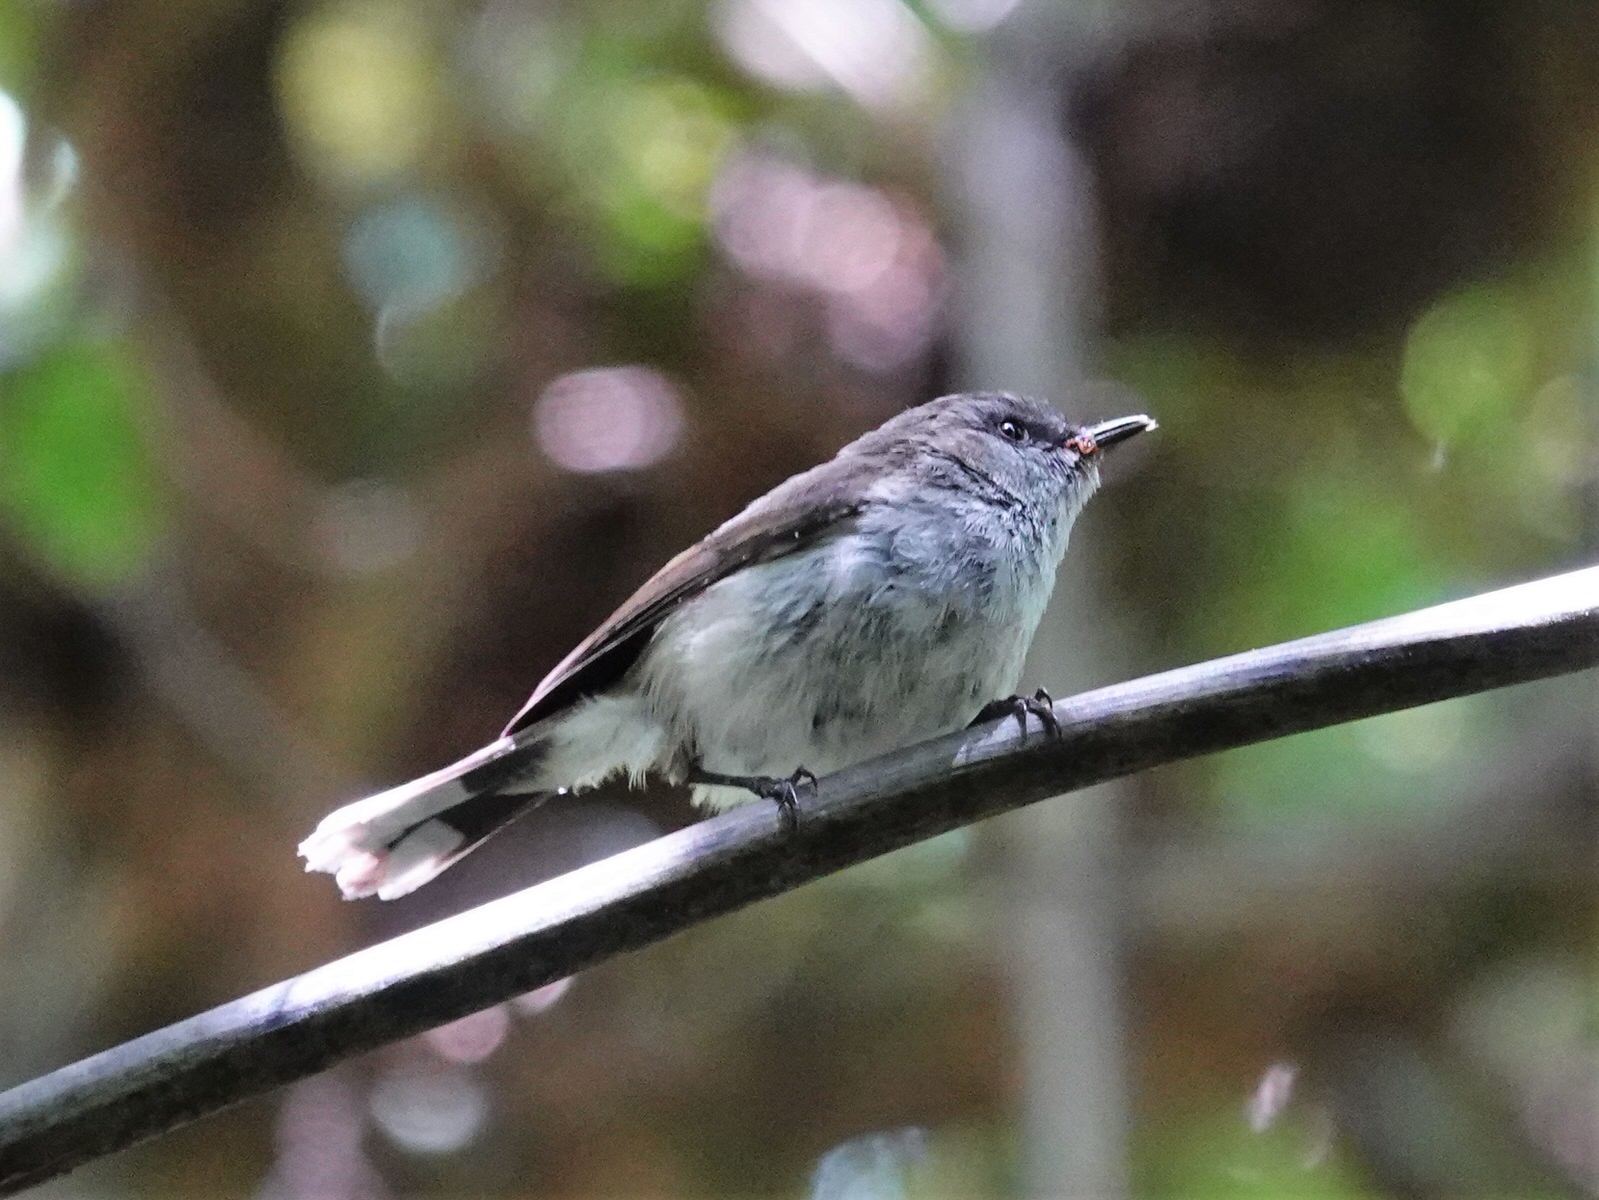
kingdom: Animalia
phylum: Chordata
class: Aves
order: Passeriformes
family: Acanthizidae
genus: Gerygone
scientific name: Gerygone igata
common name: Grey gerygone
